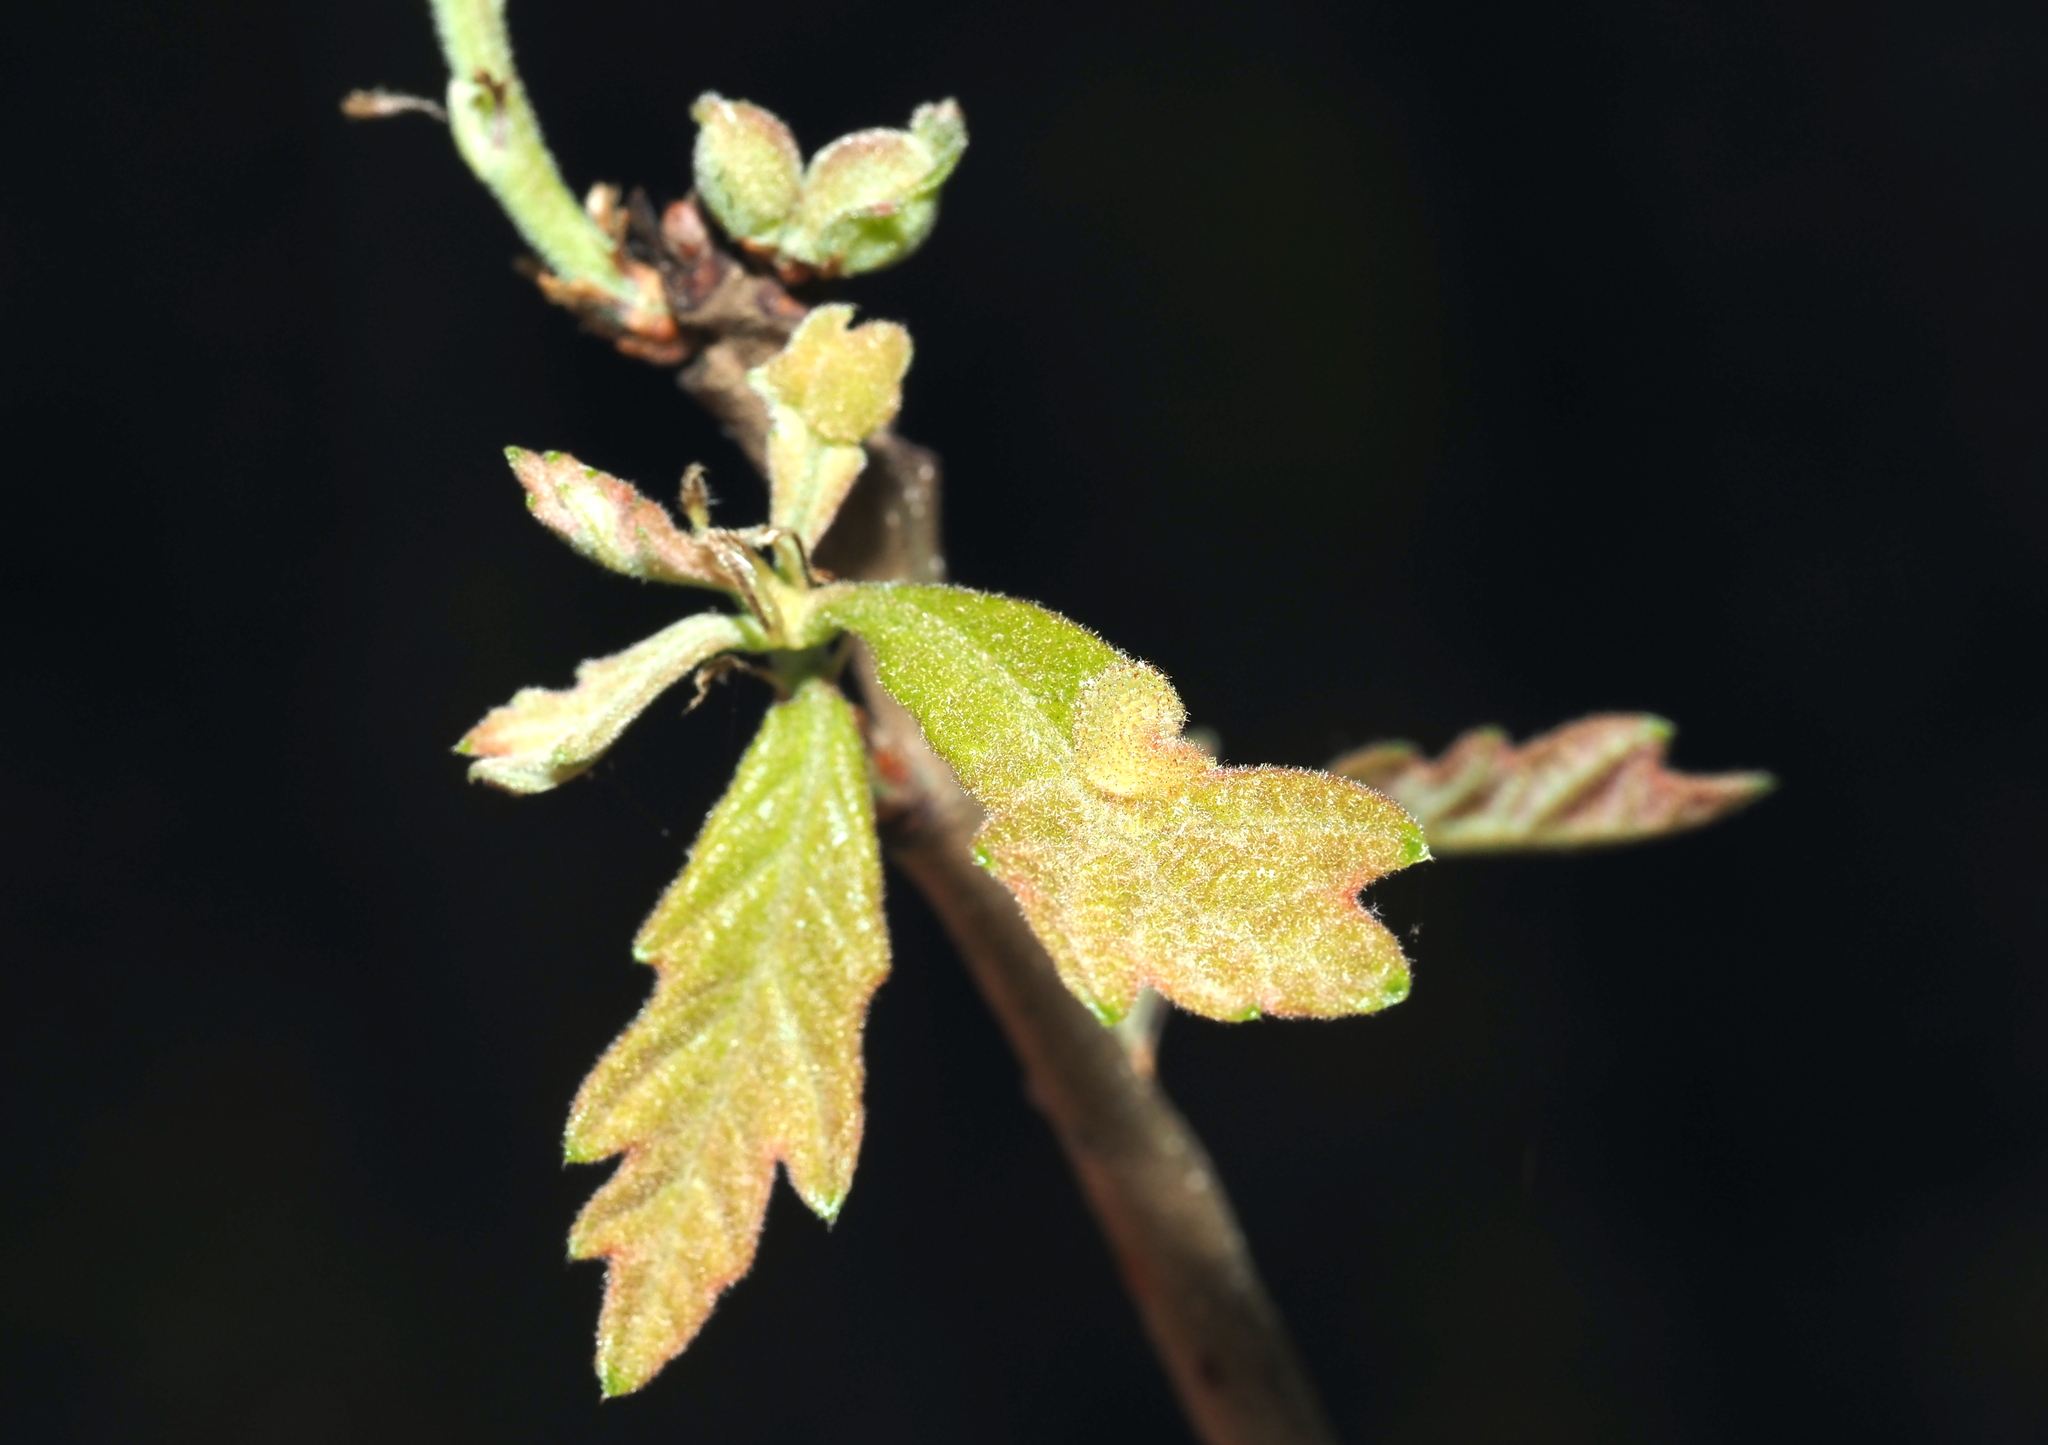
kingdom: Animalia
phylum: Arthropoda
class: Insecta
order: Hymenoptera
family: Cynipidae
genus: Neuroterus
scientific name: Neuroterus quercusirregularis
